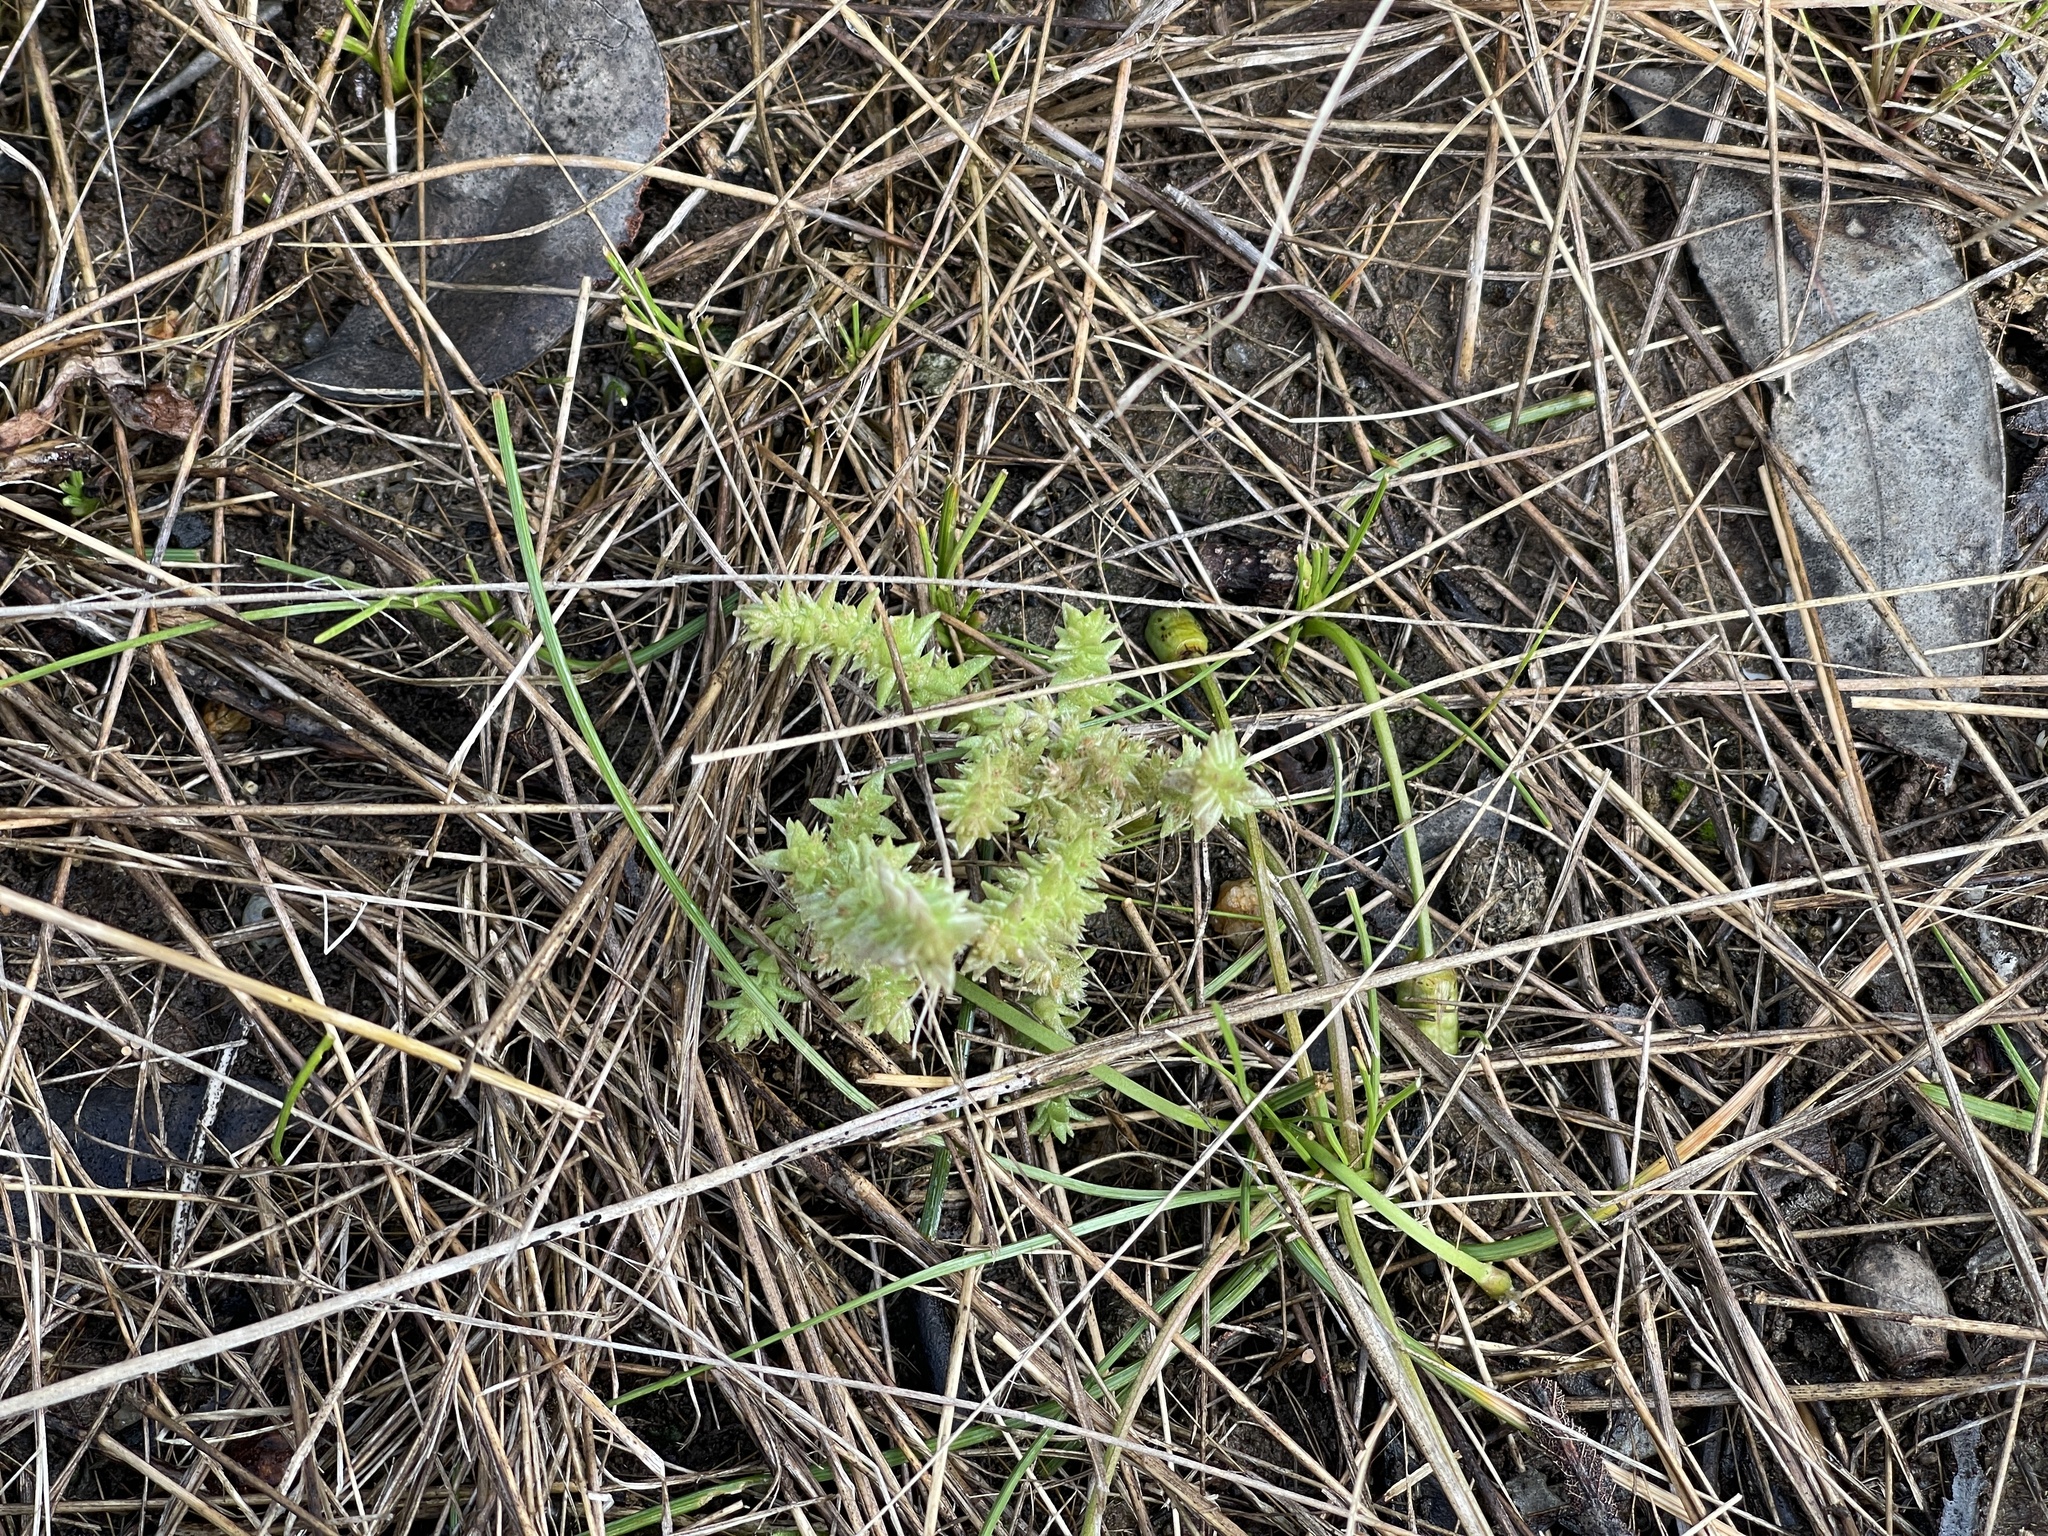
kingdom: Plantae
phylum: Tracheophyta
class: Magnoliopsida
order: Saxifragales
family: Crassulaceae
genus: Crassula
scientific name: Crassula sieberiana
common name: Siberian pygmyweed
